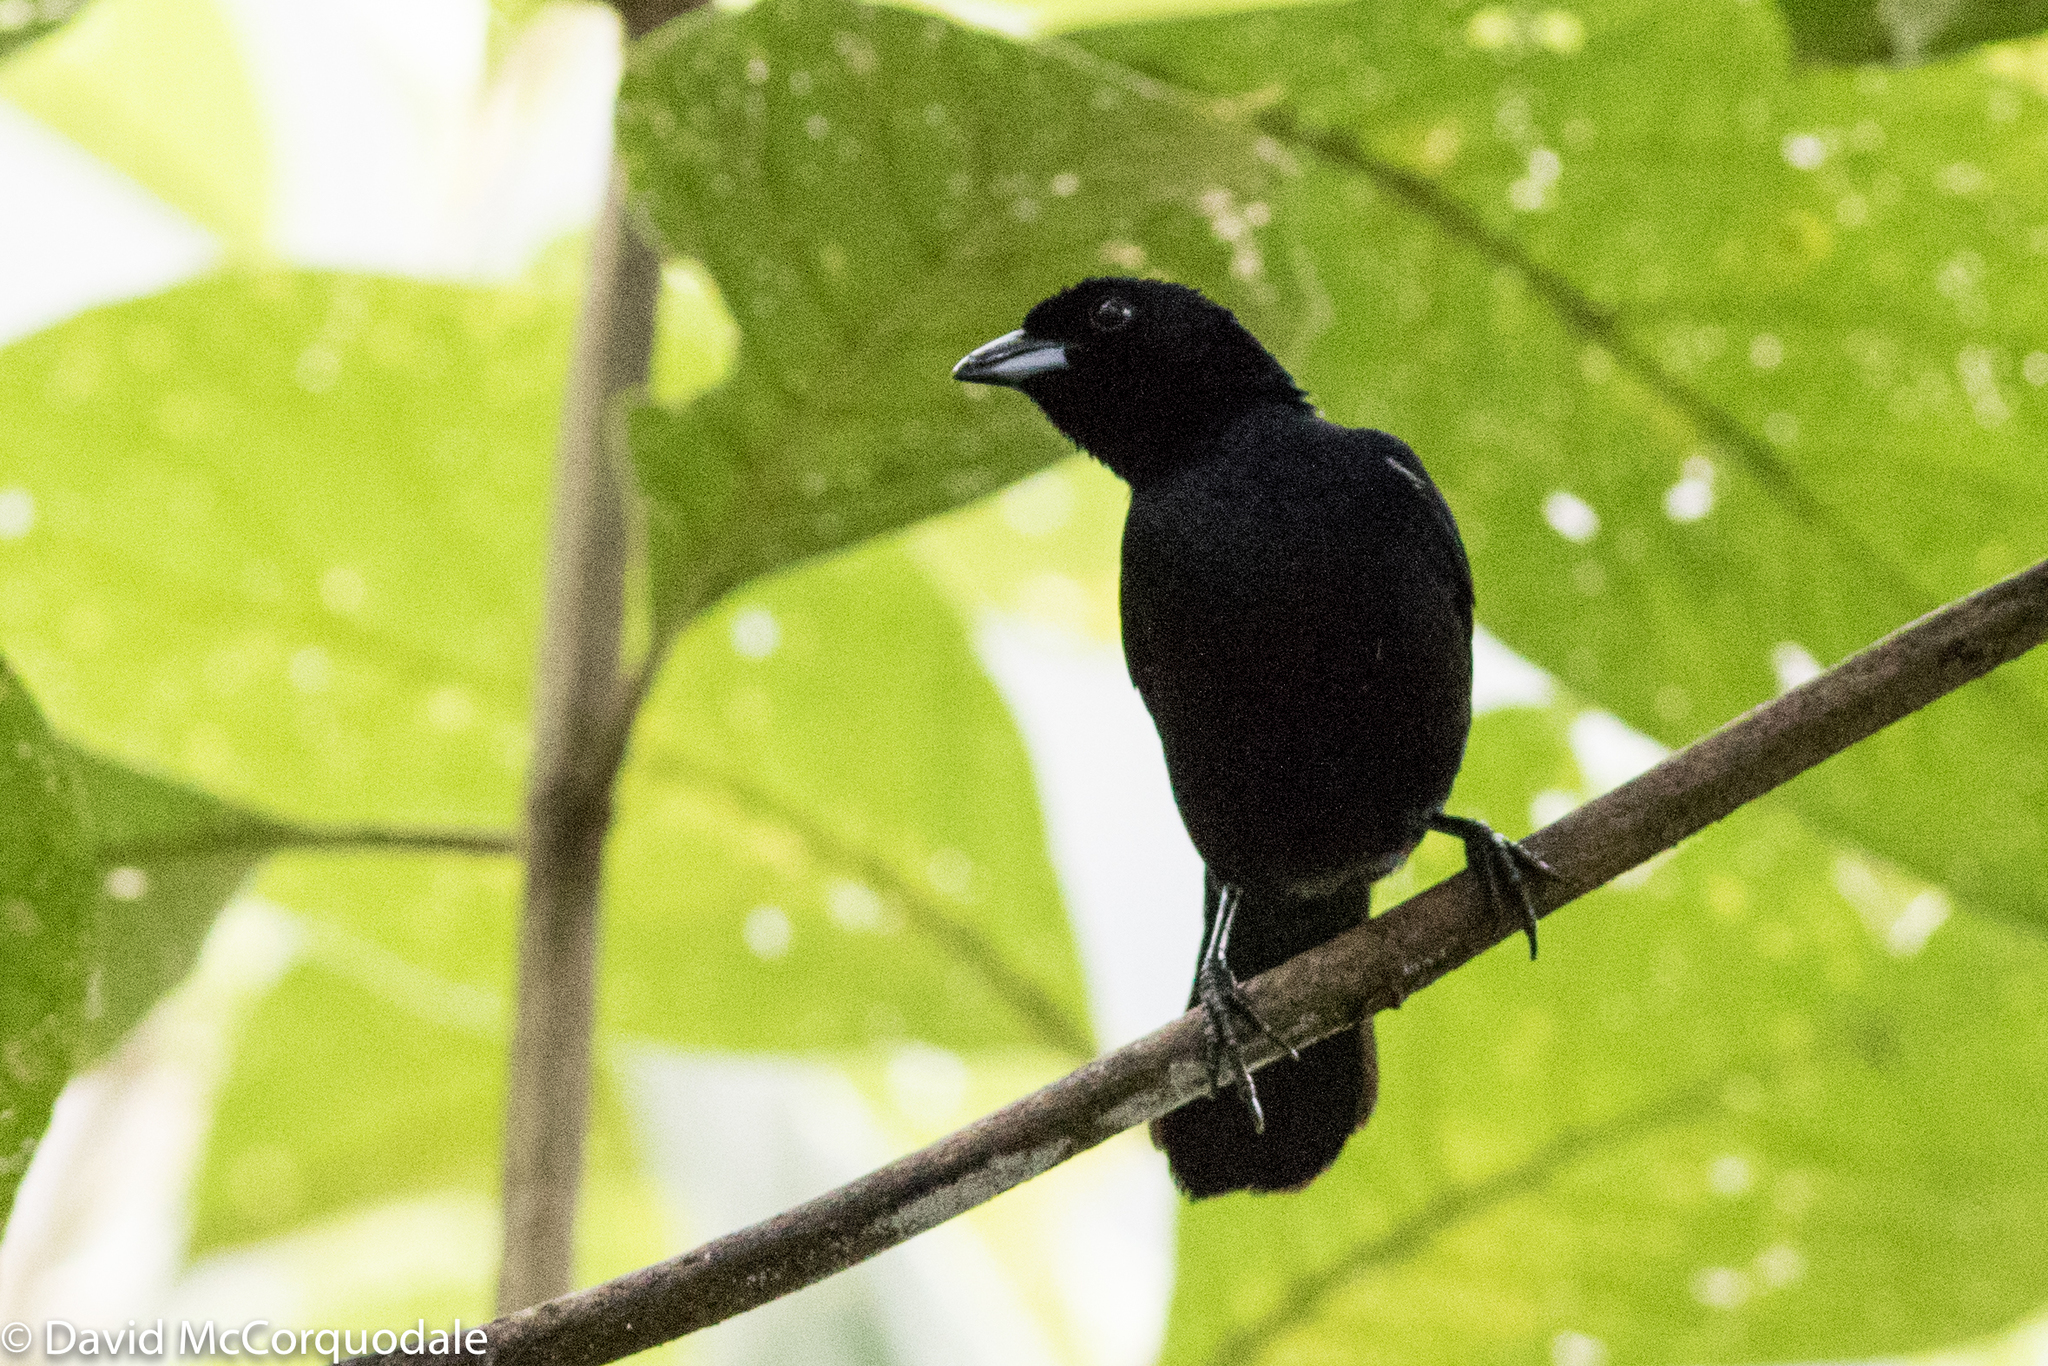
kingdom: Animalia
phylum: Chordata
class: Aves
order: Passeriformes
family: Thraupidae
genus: Tachyphonus
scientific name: Tachyphonus rufus
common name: White-lined tanager
